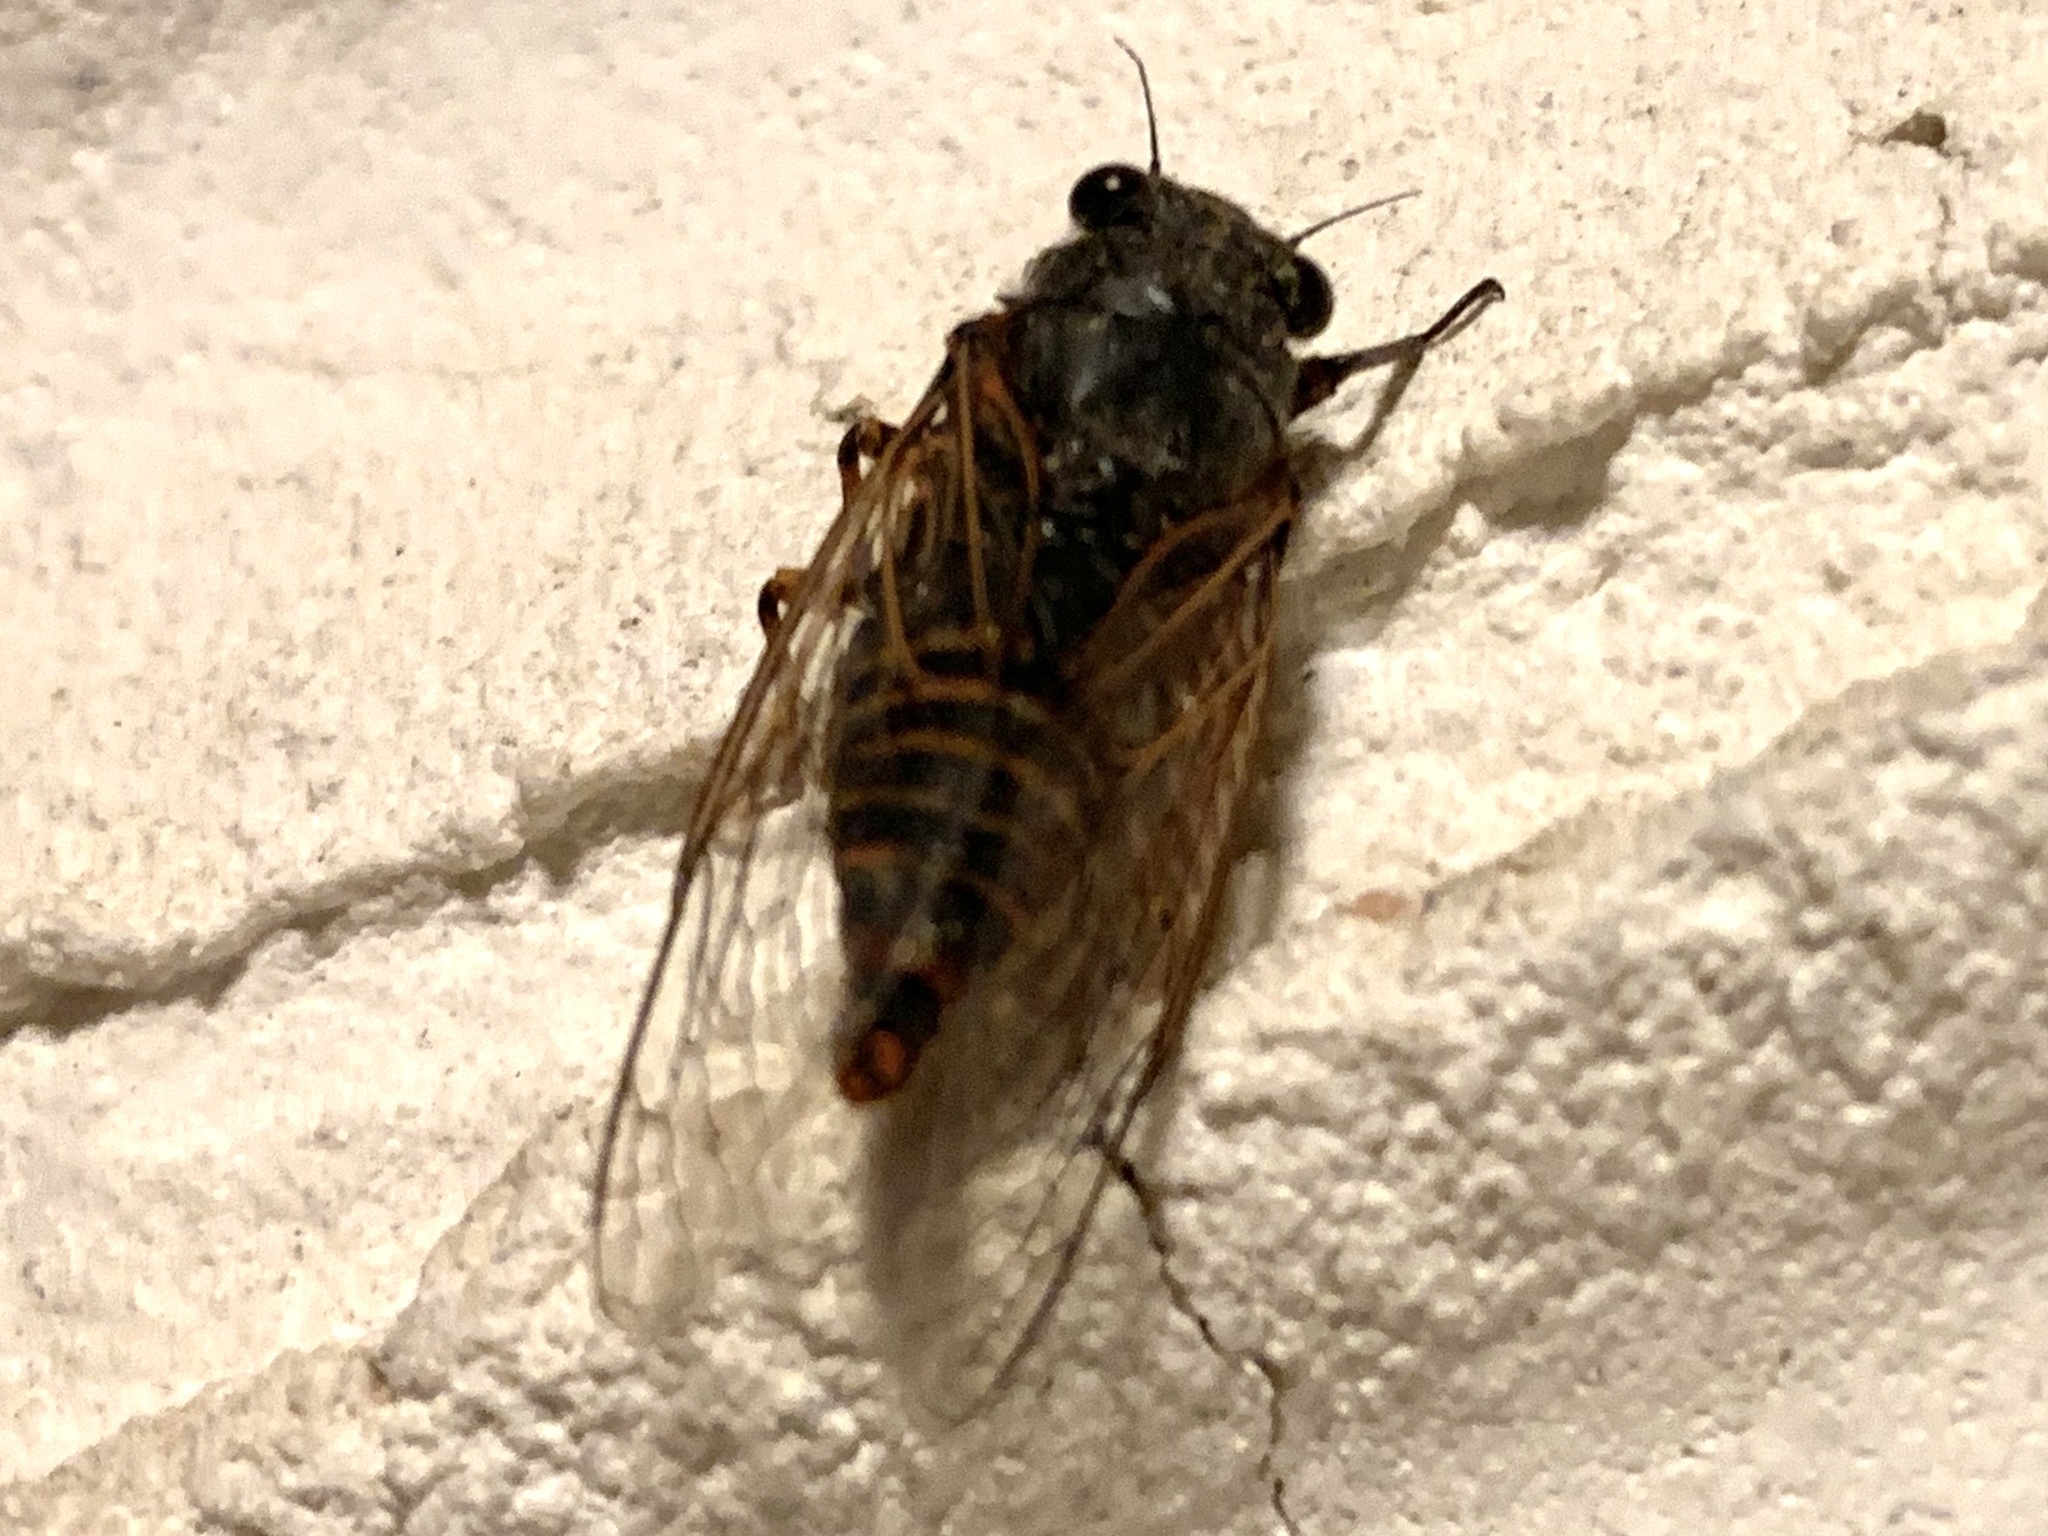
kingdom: Animalia
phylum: Arthropoda
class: Insecta
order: Hemiptera
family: Cicadidae
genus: Euboeana
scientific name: Euboeana castaneivaga
